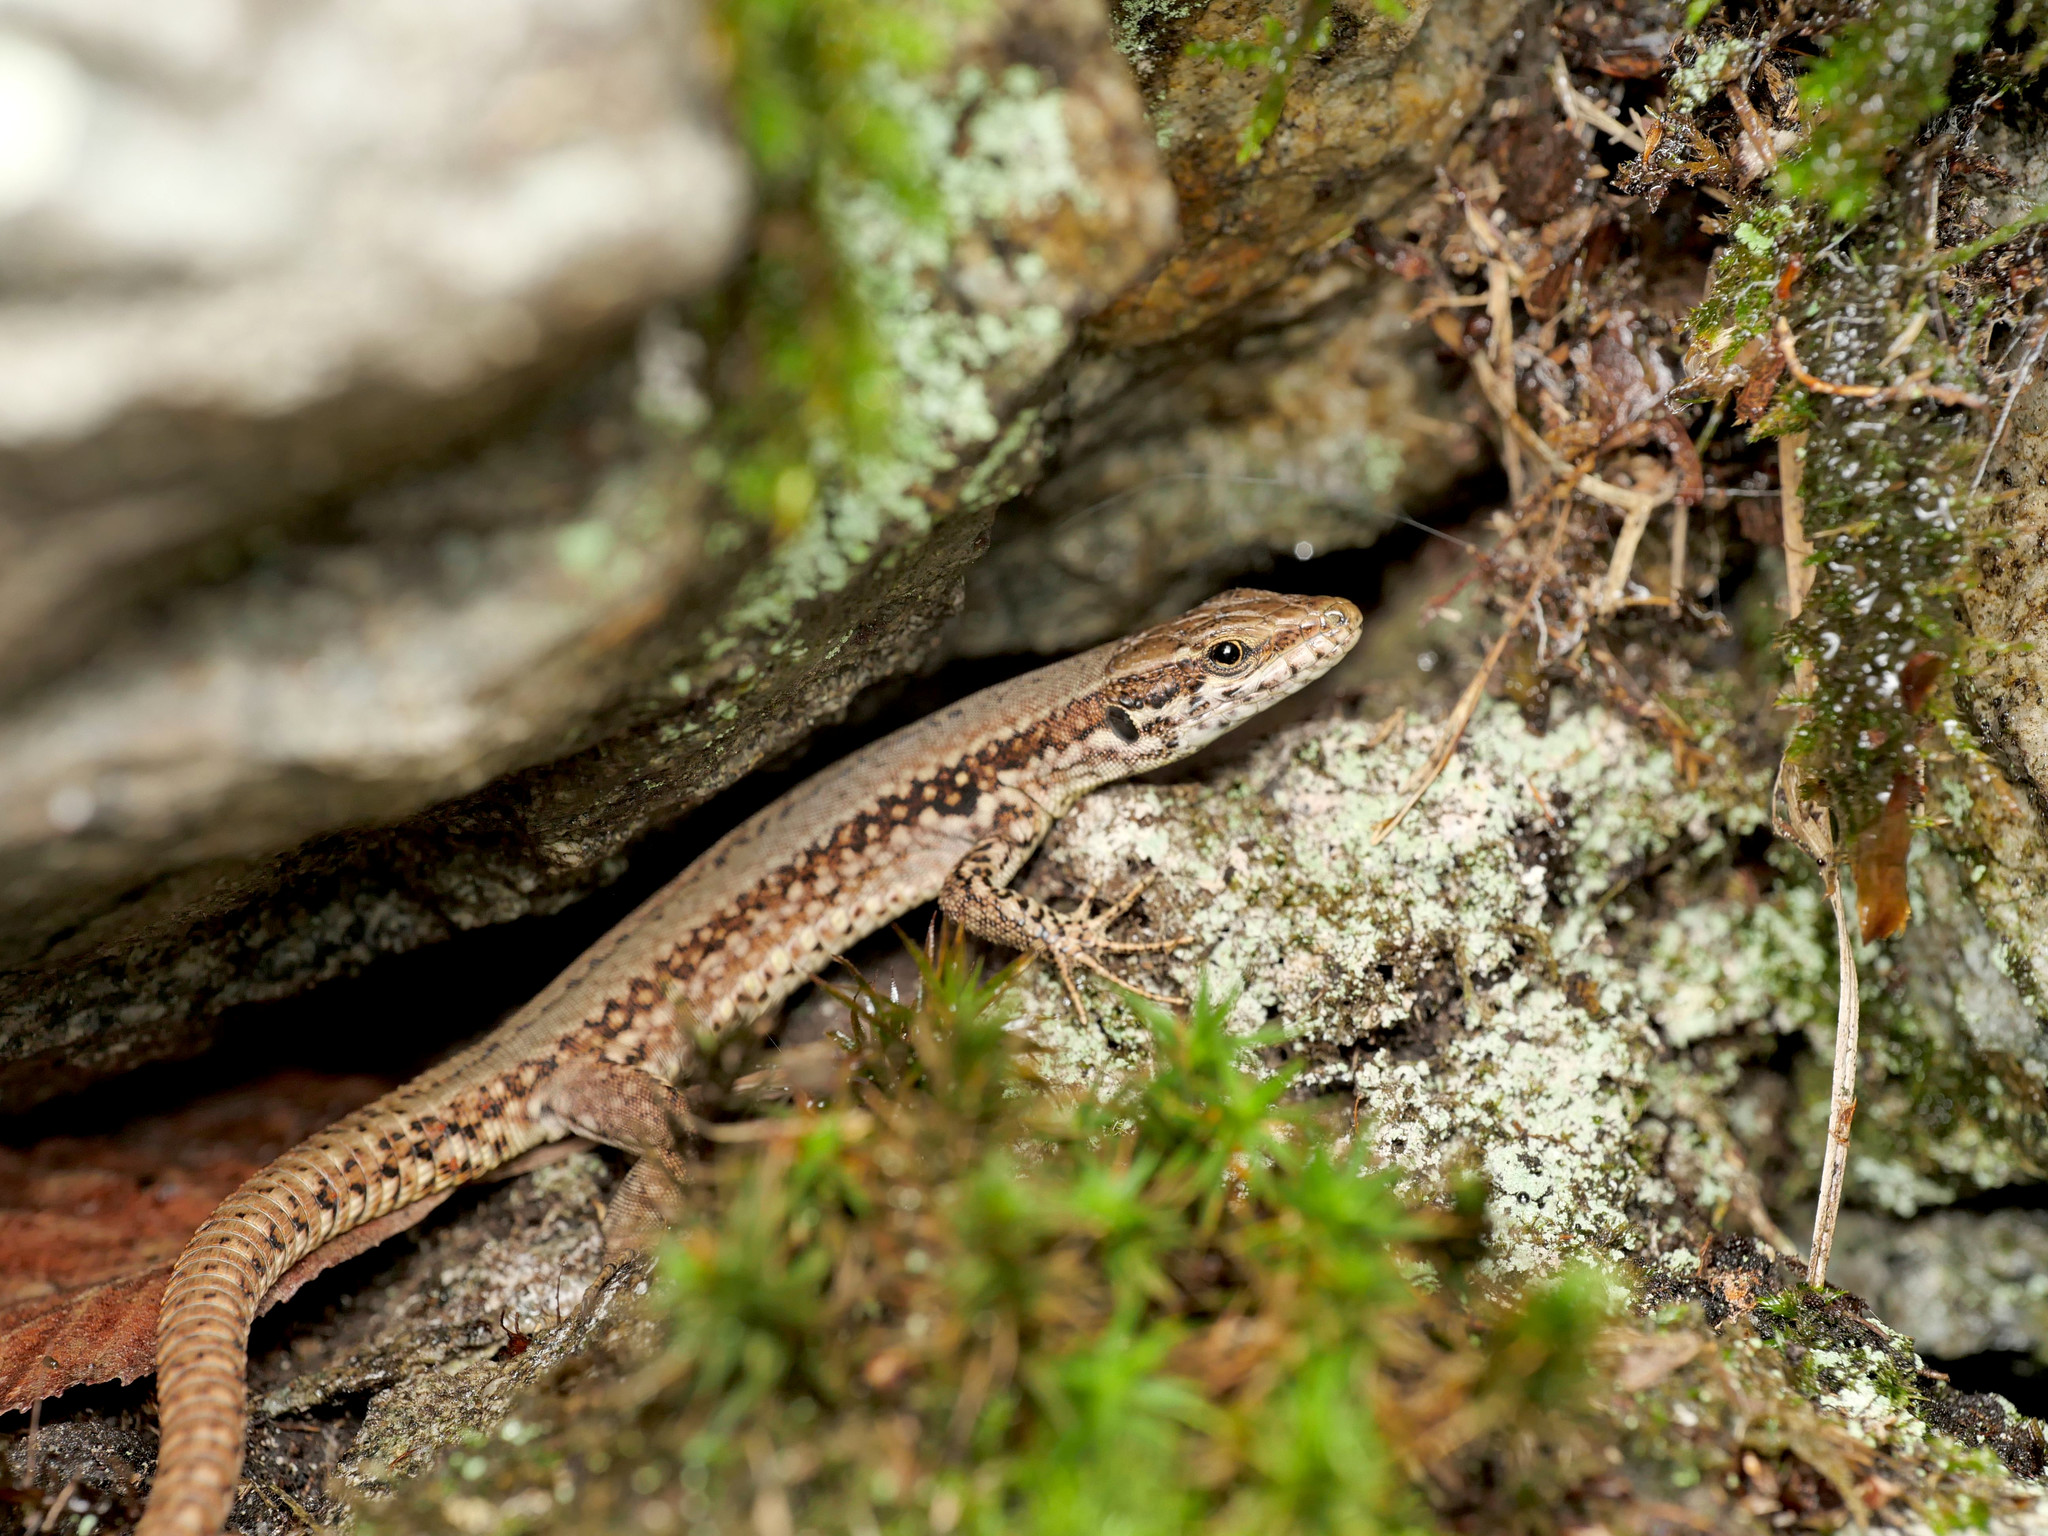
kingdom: Animalia
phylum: Chordata
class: Squamata
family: Lacertidae
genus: Podarcis
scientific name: Podarcis muralis
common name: Common wall lizard
